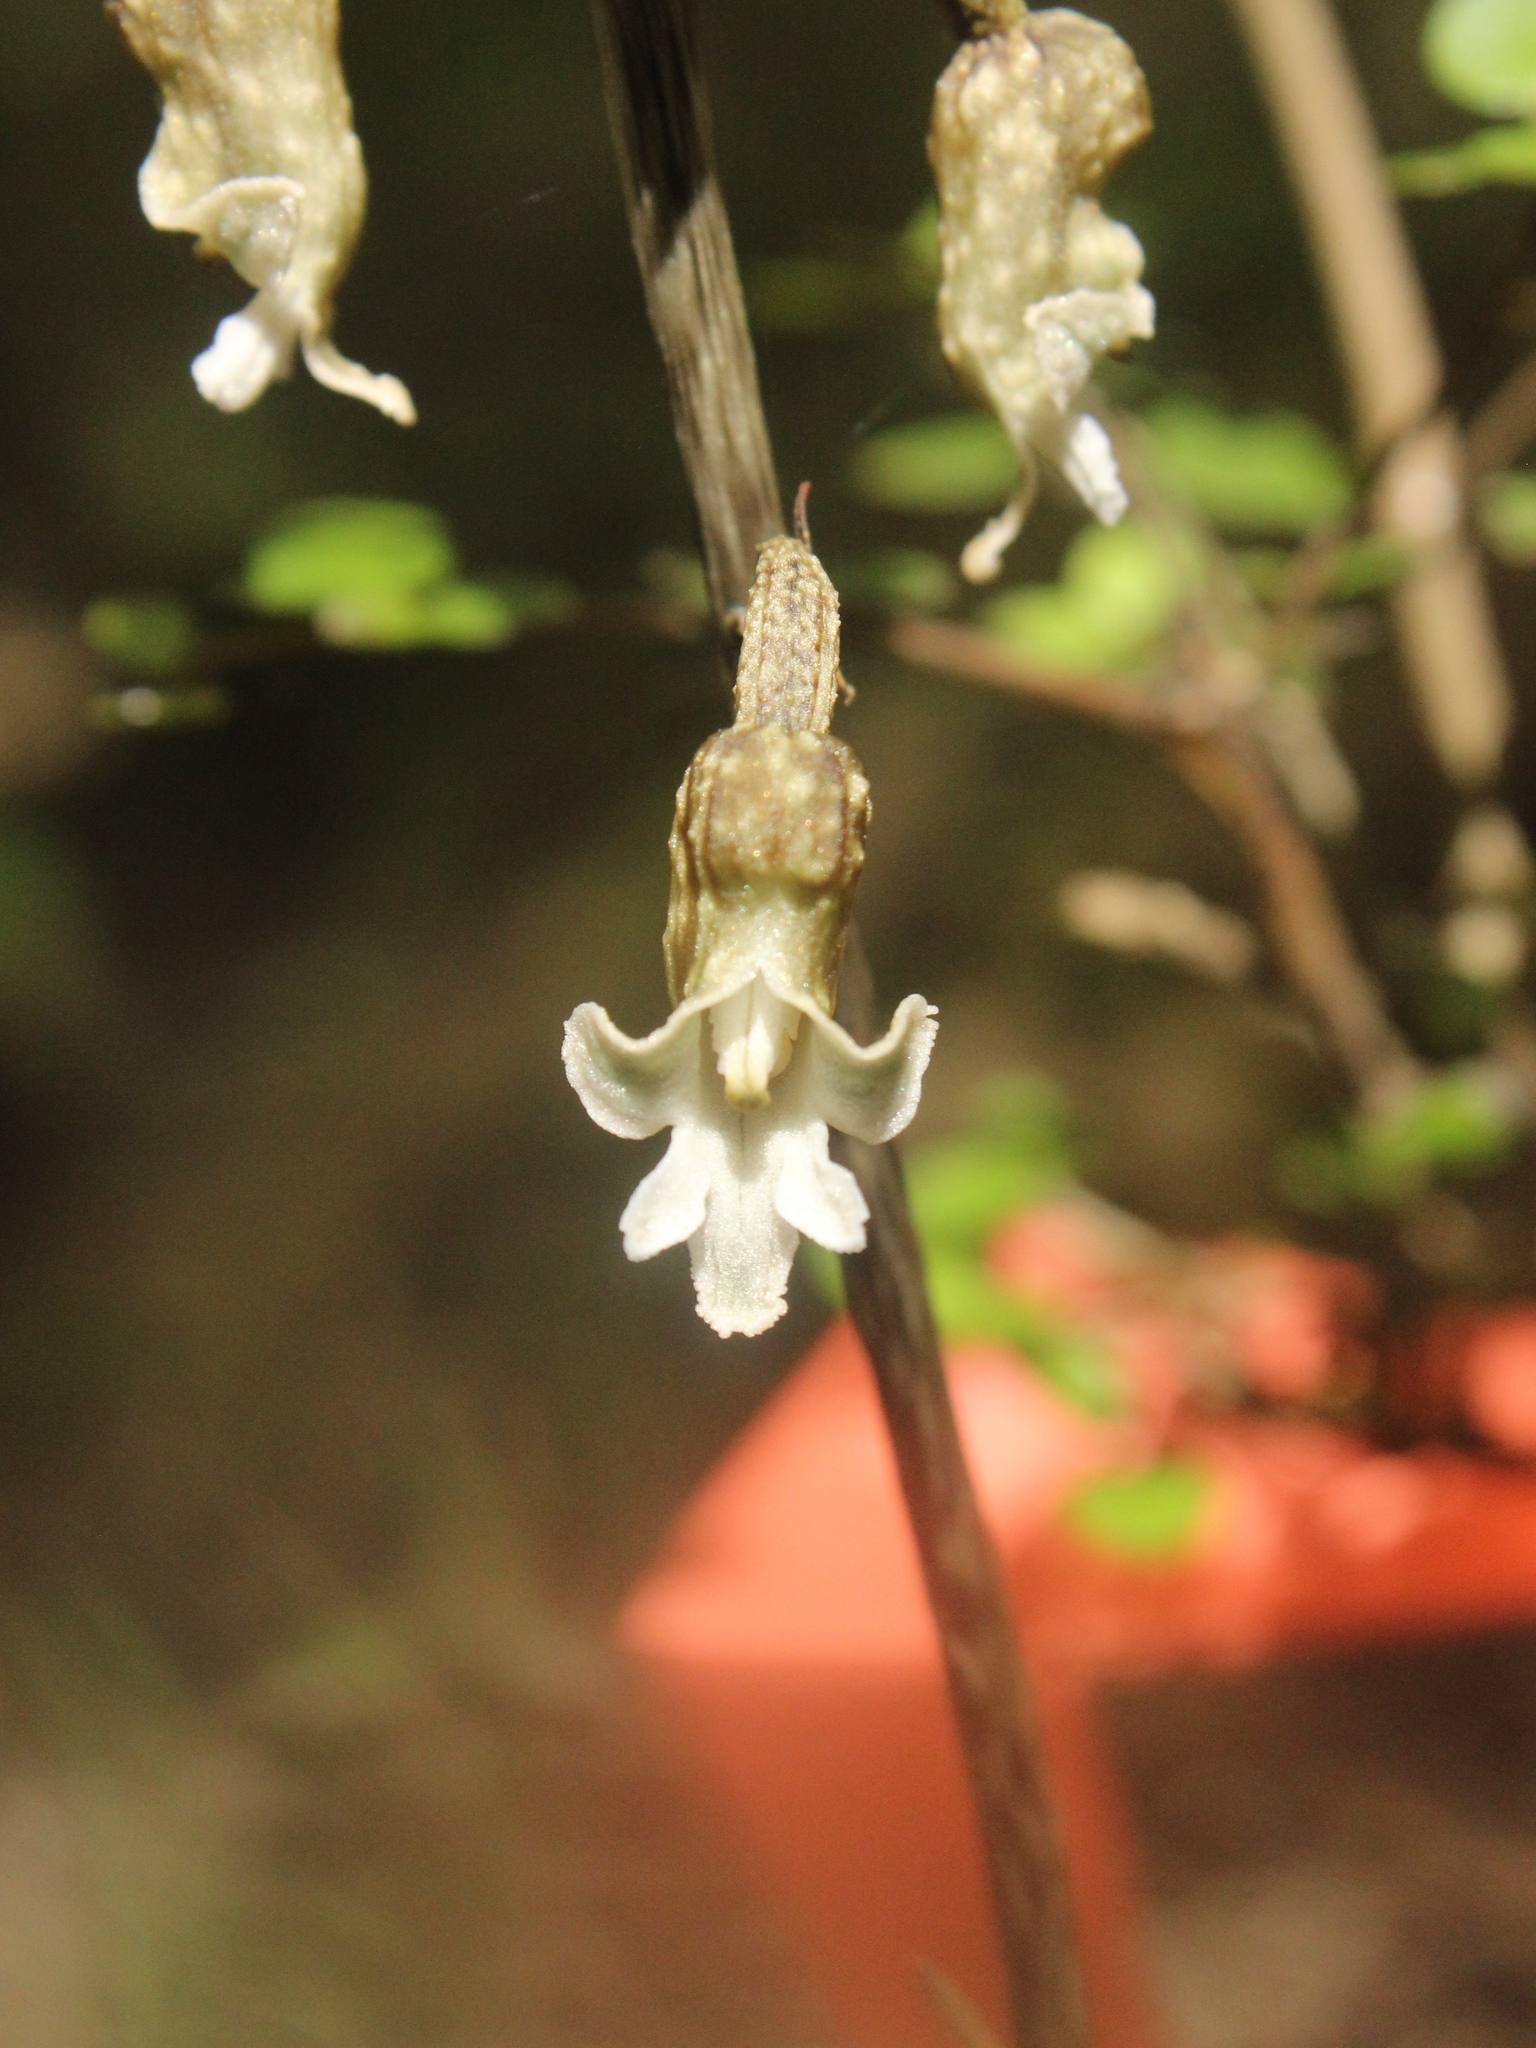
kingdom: Plantae
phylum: Tracheophyta
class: Liliopsida
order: Asparagales
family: Orchidaceae
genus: Gastrodia
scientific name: Gastrodia cooperae
